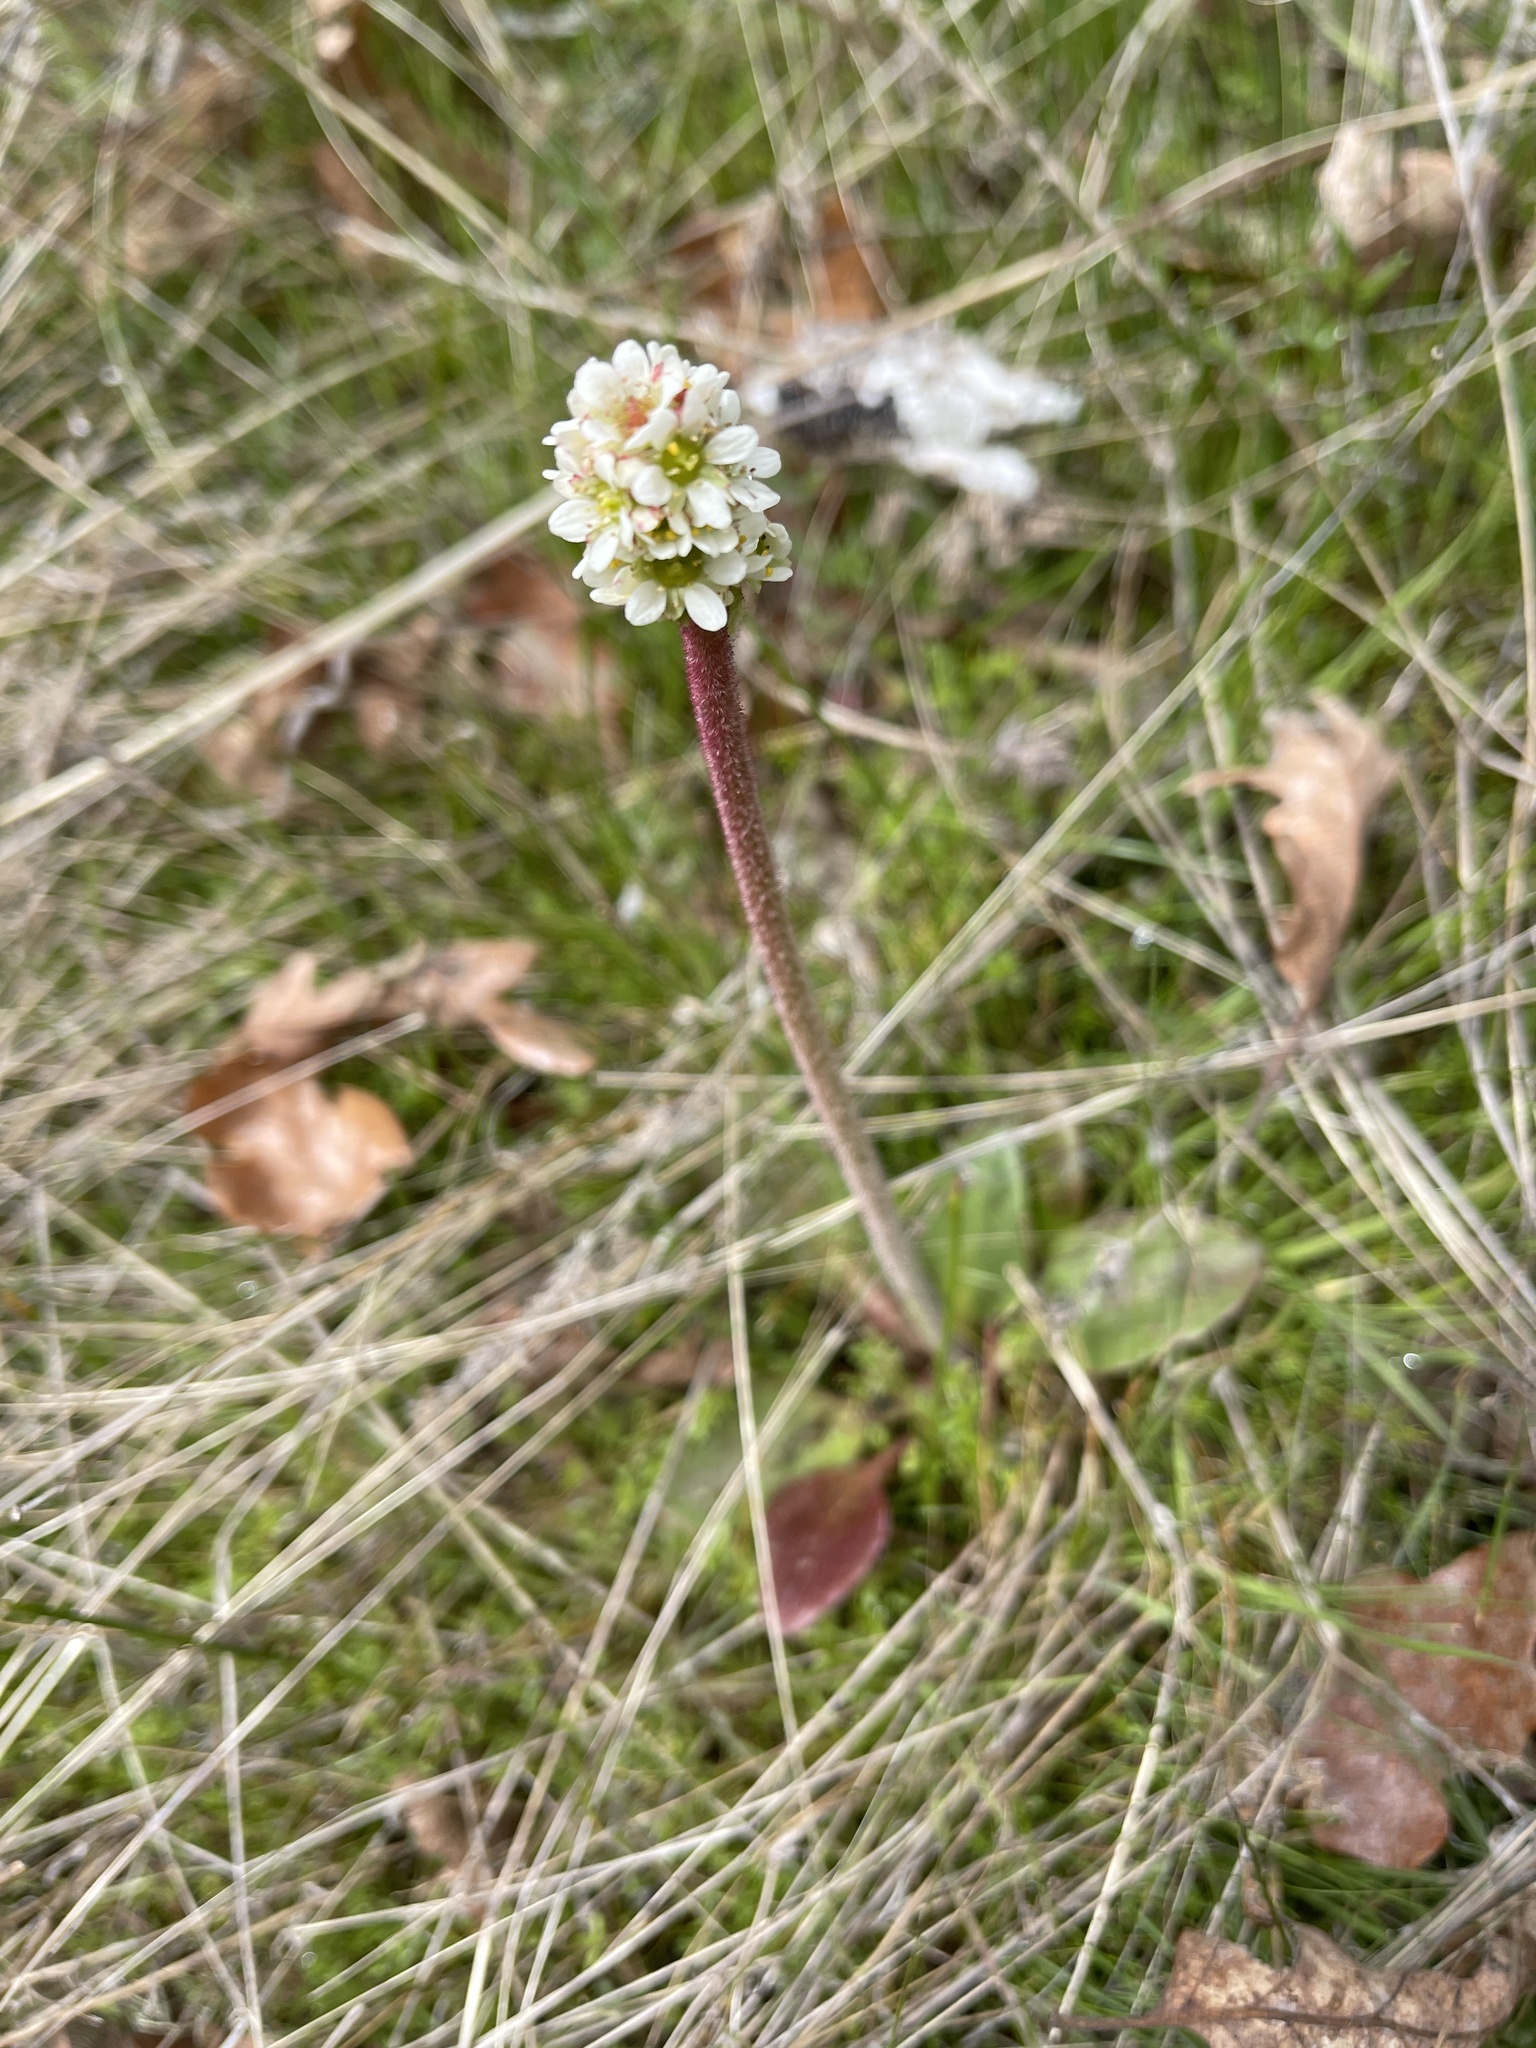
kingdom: Plantae
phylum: Tracheophyta
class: Magnoliopsida
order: Saxifragales
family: Saxifragaceae
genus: Micranthes
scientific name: Micranthes integrifolia
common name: Wholeleaf saxifrage
